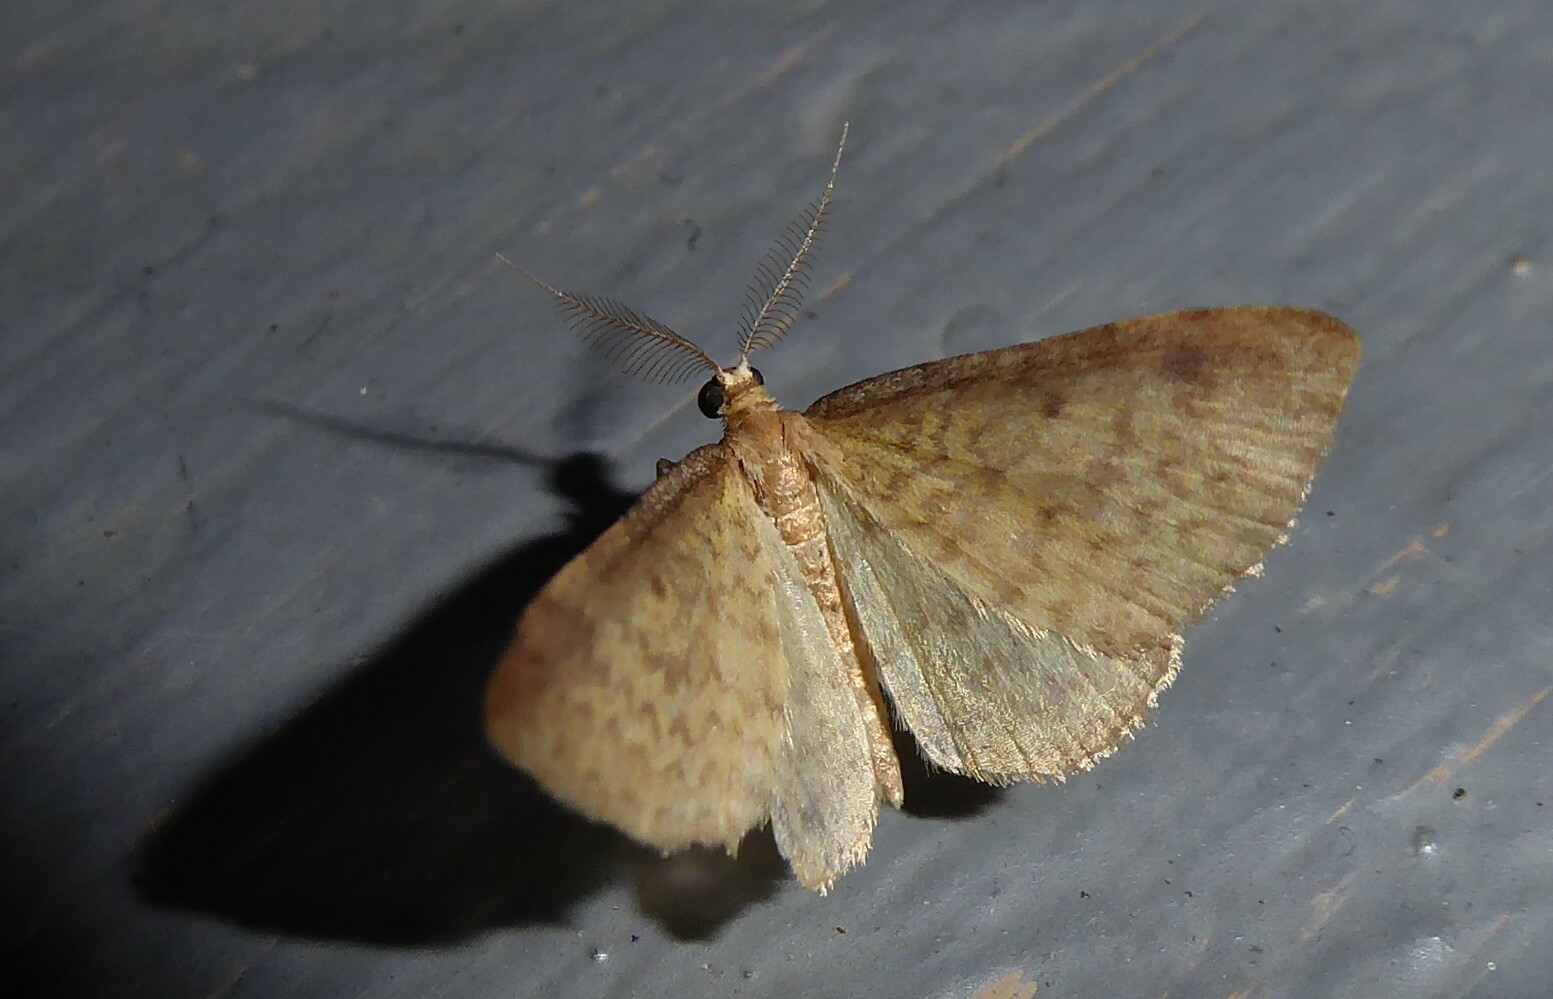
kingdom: Animalia
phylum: Arthropoda
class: Insecta
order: Lepidoptera
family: Geometridae
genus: Epiphryne
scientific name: Epiphryne undosata
